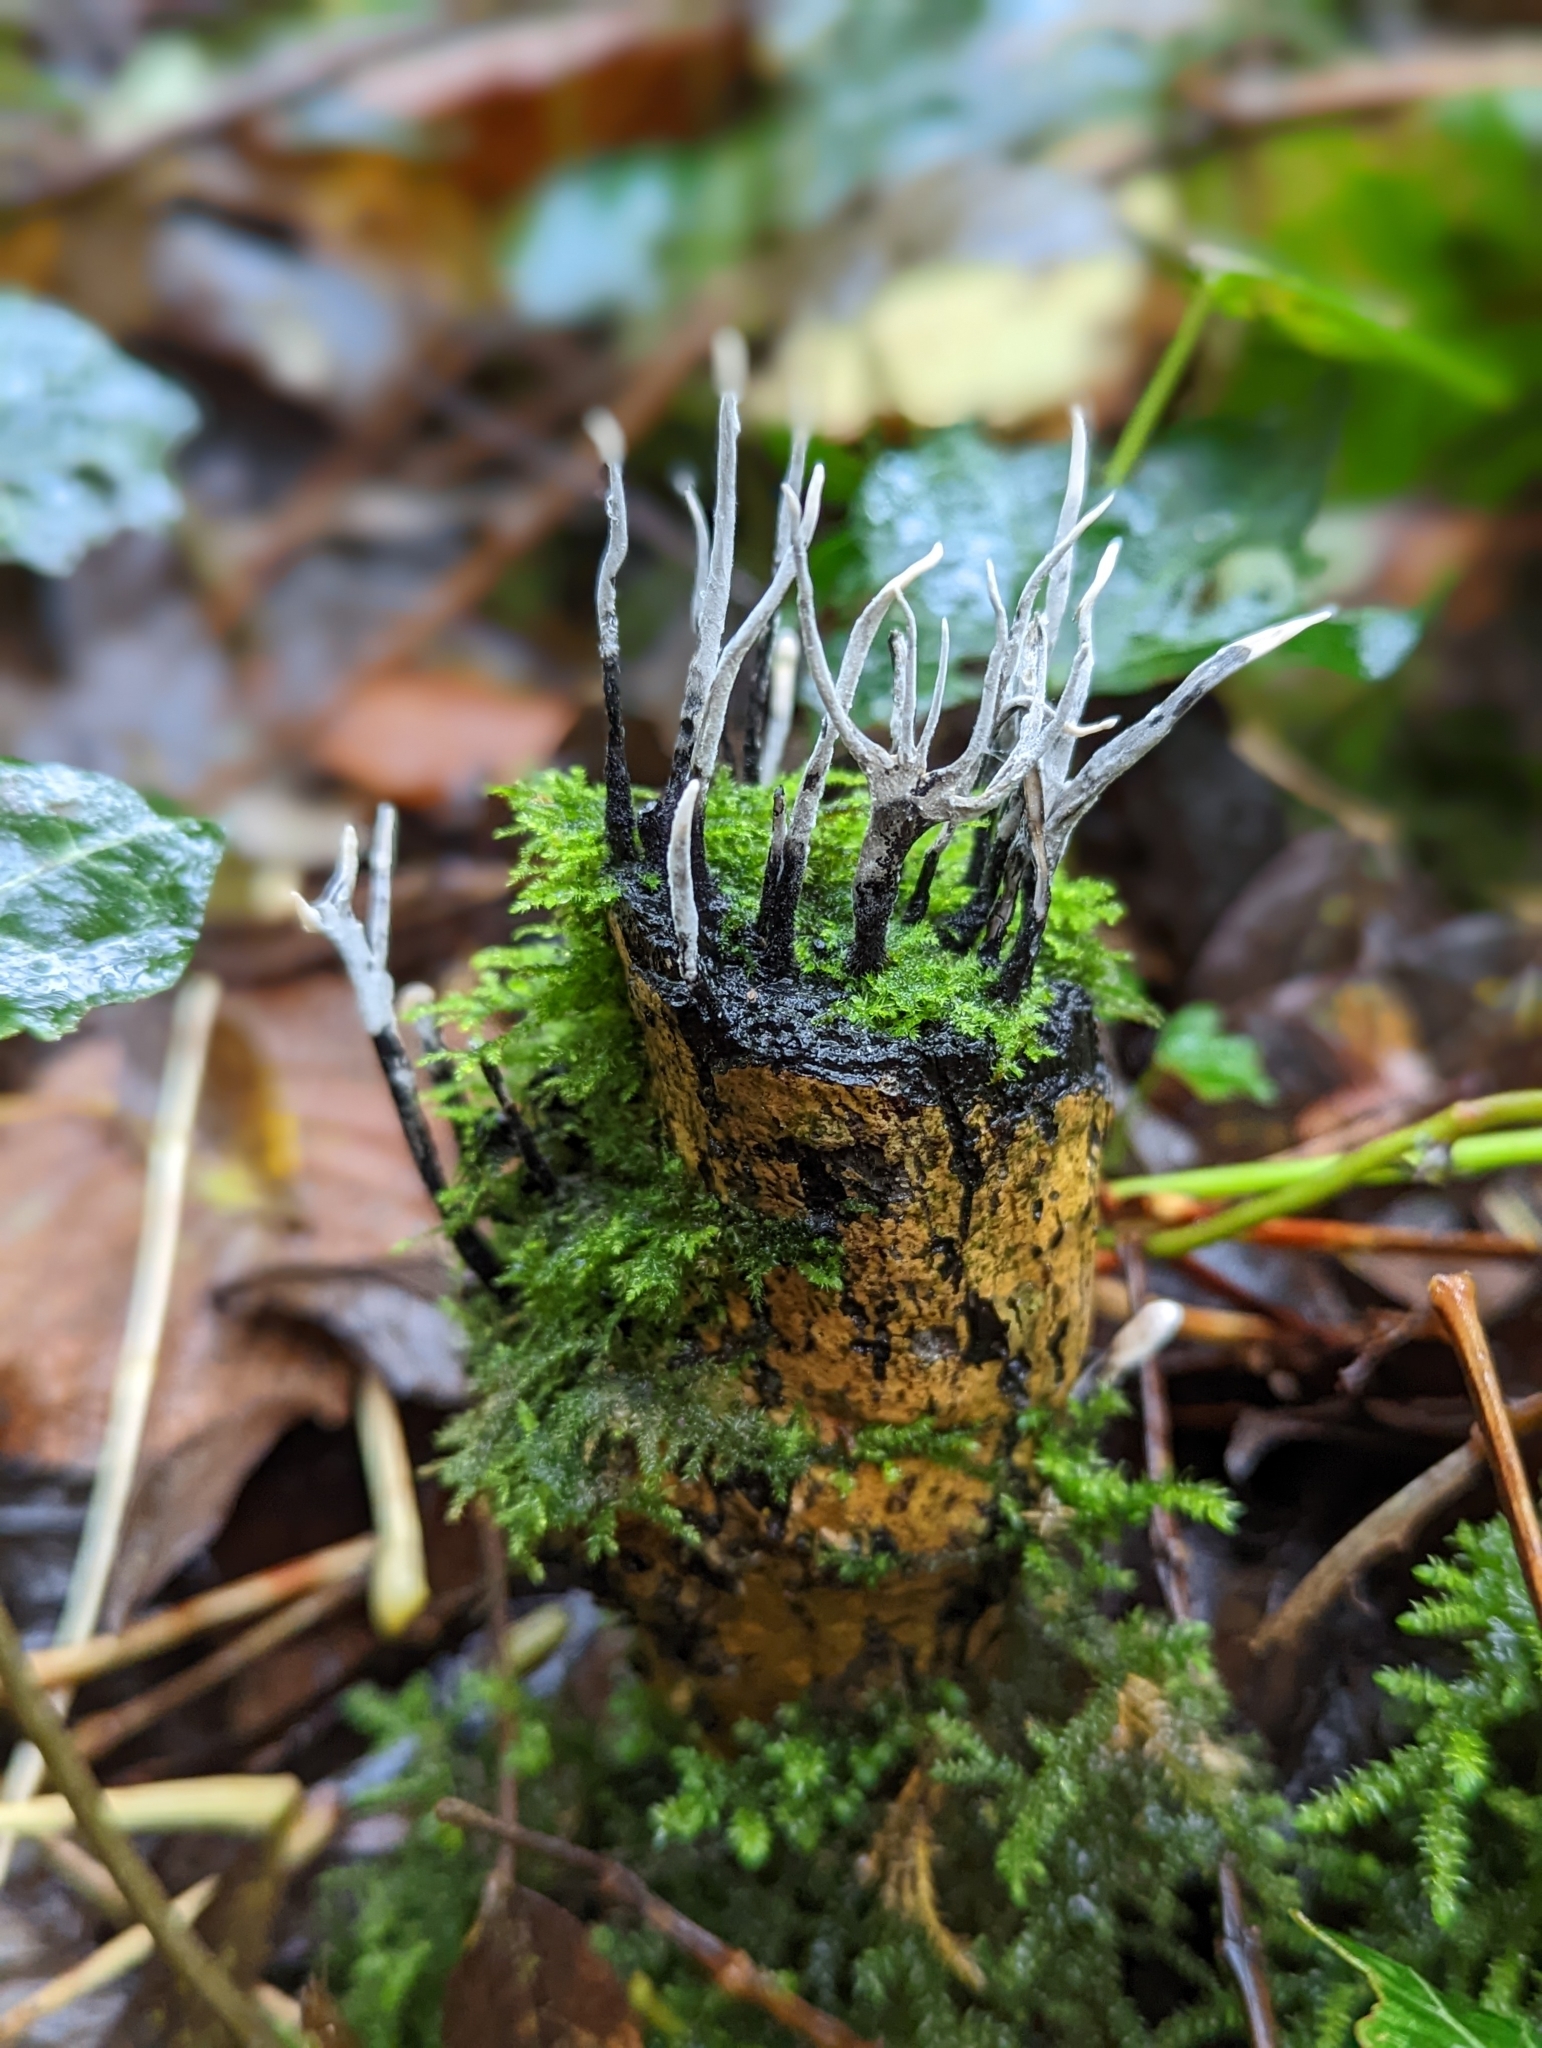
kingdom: Fungi
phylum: Ascomycota
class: Sordariomycetes
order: Xylariales
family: Xylariaceae
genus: Xylaria
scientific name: Xylaria hypoxylon
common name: Candle-snuff fungus
